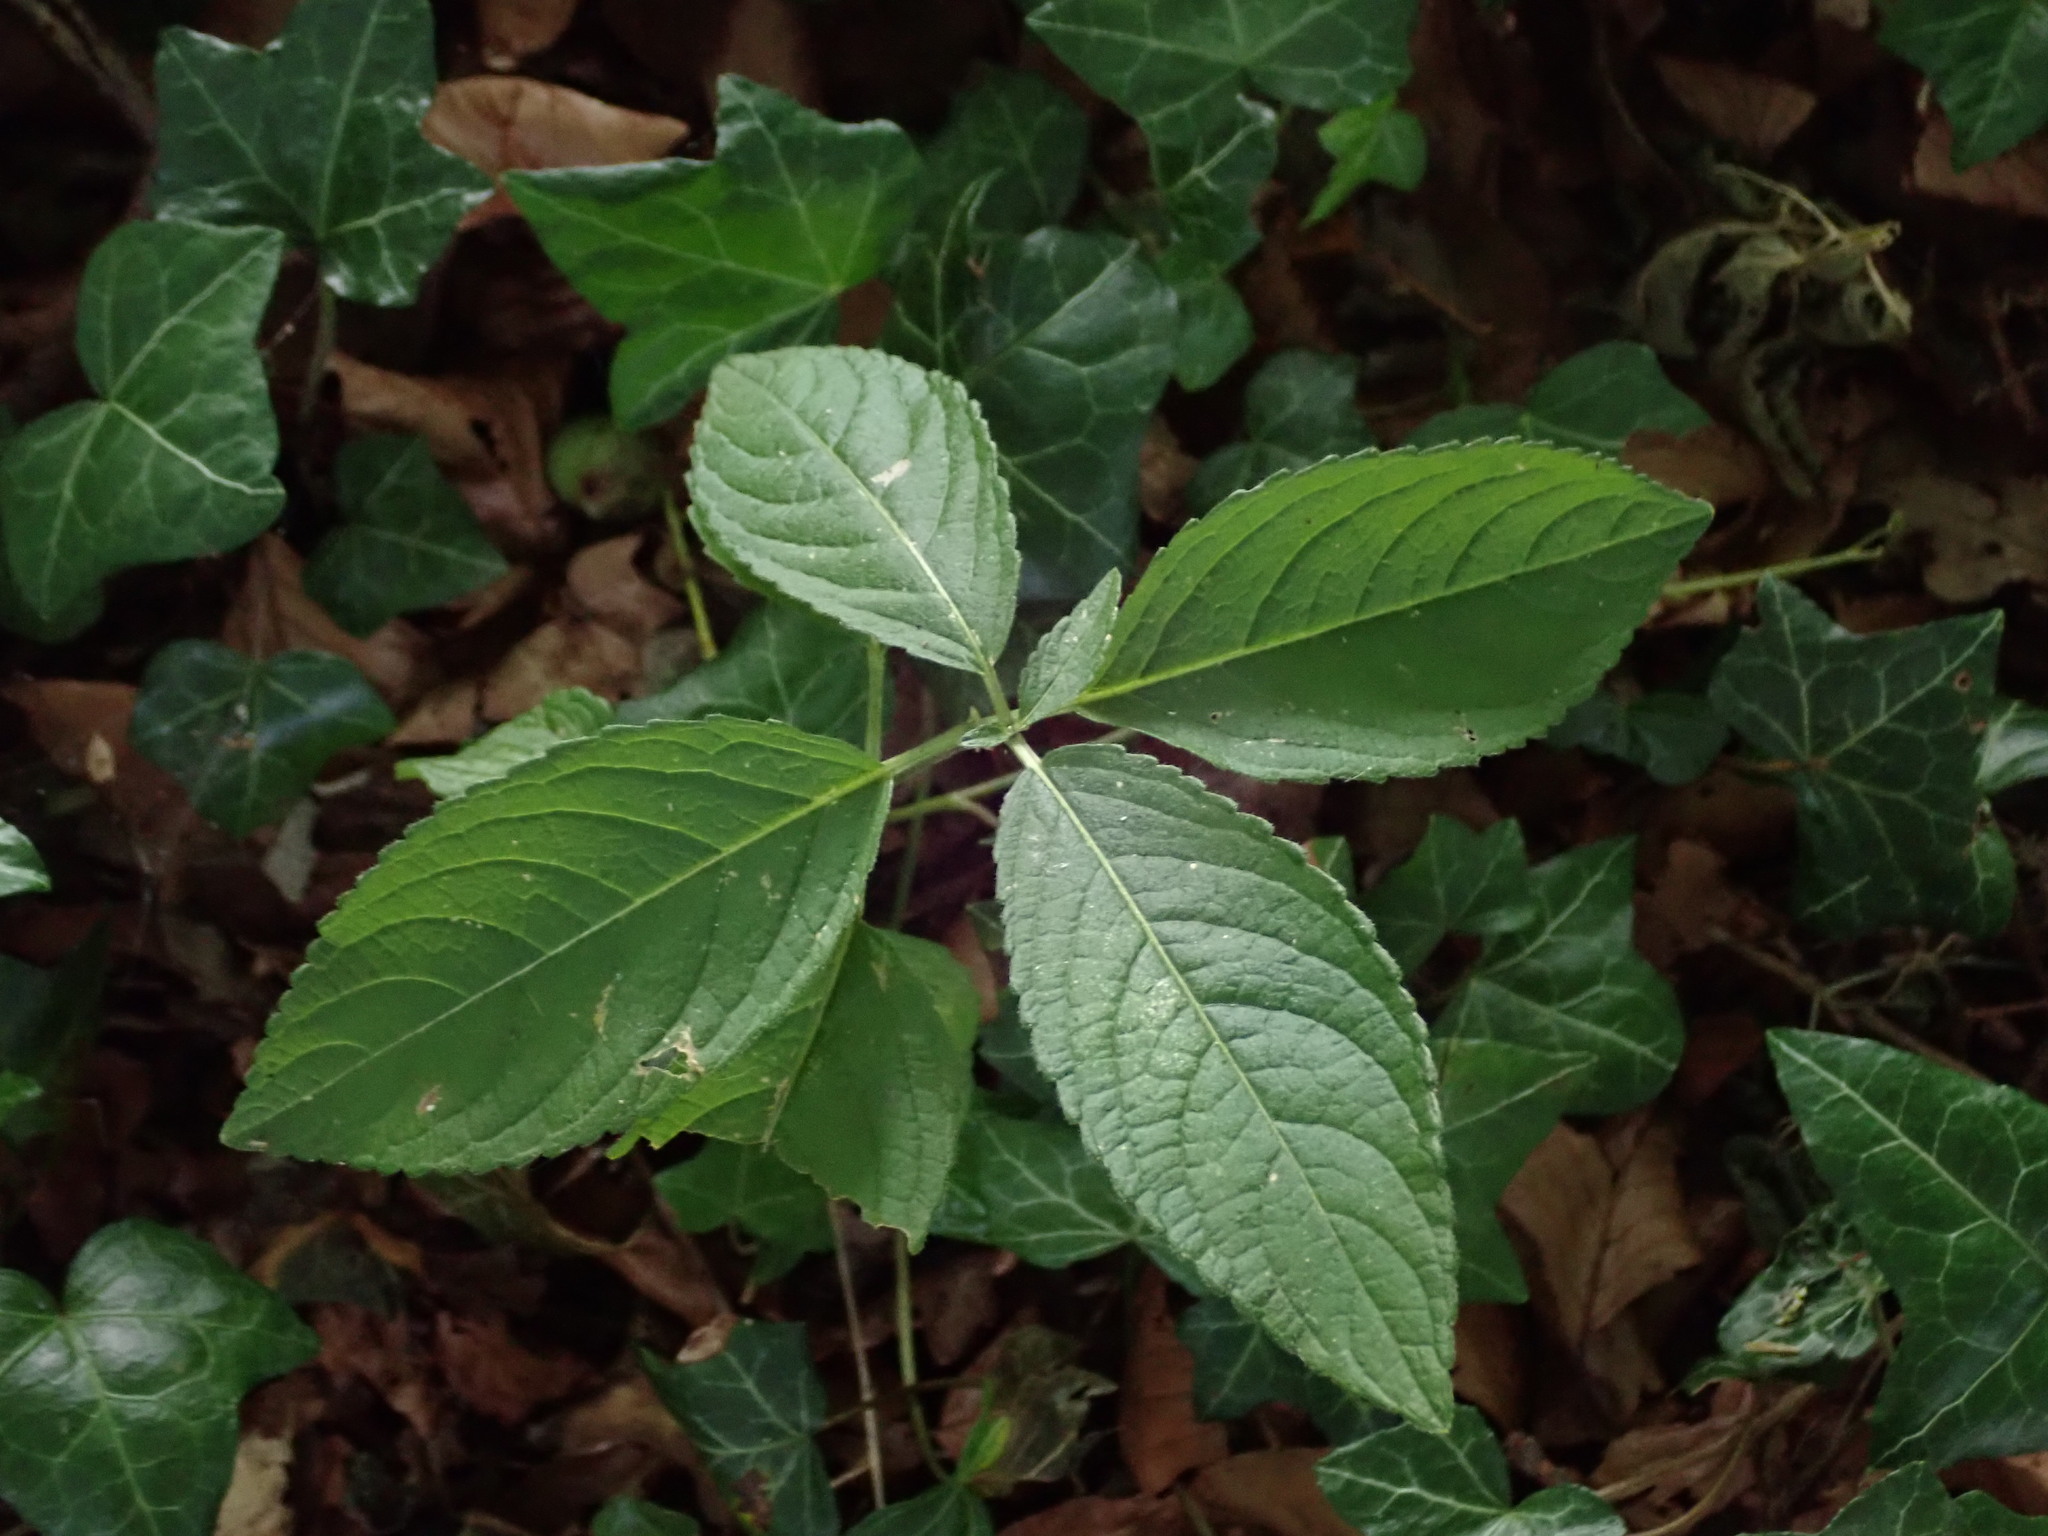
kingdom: Plantae
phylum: Tracheophyta
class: Magnoliopsida
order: Malpighiales
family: Euphorbiaceae
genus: Mercurialis
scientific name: Mercurialis perennis
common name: Dog mercury
